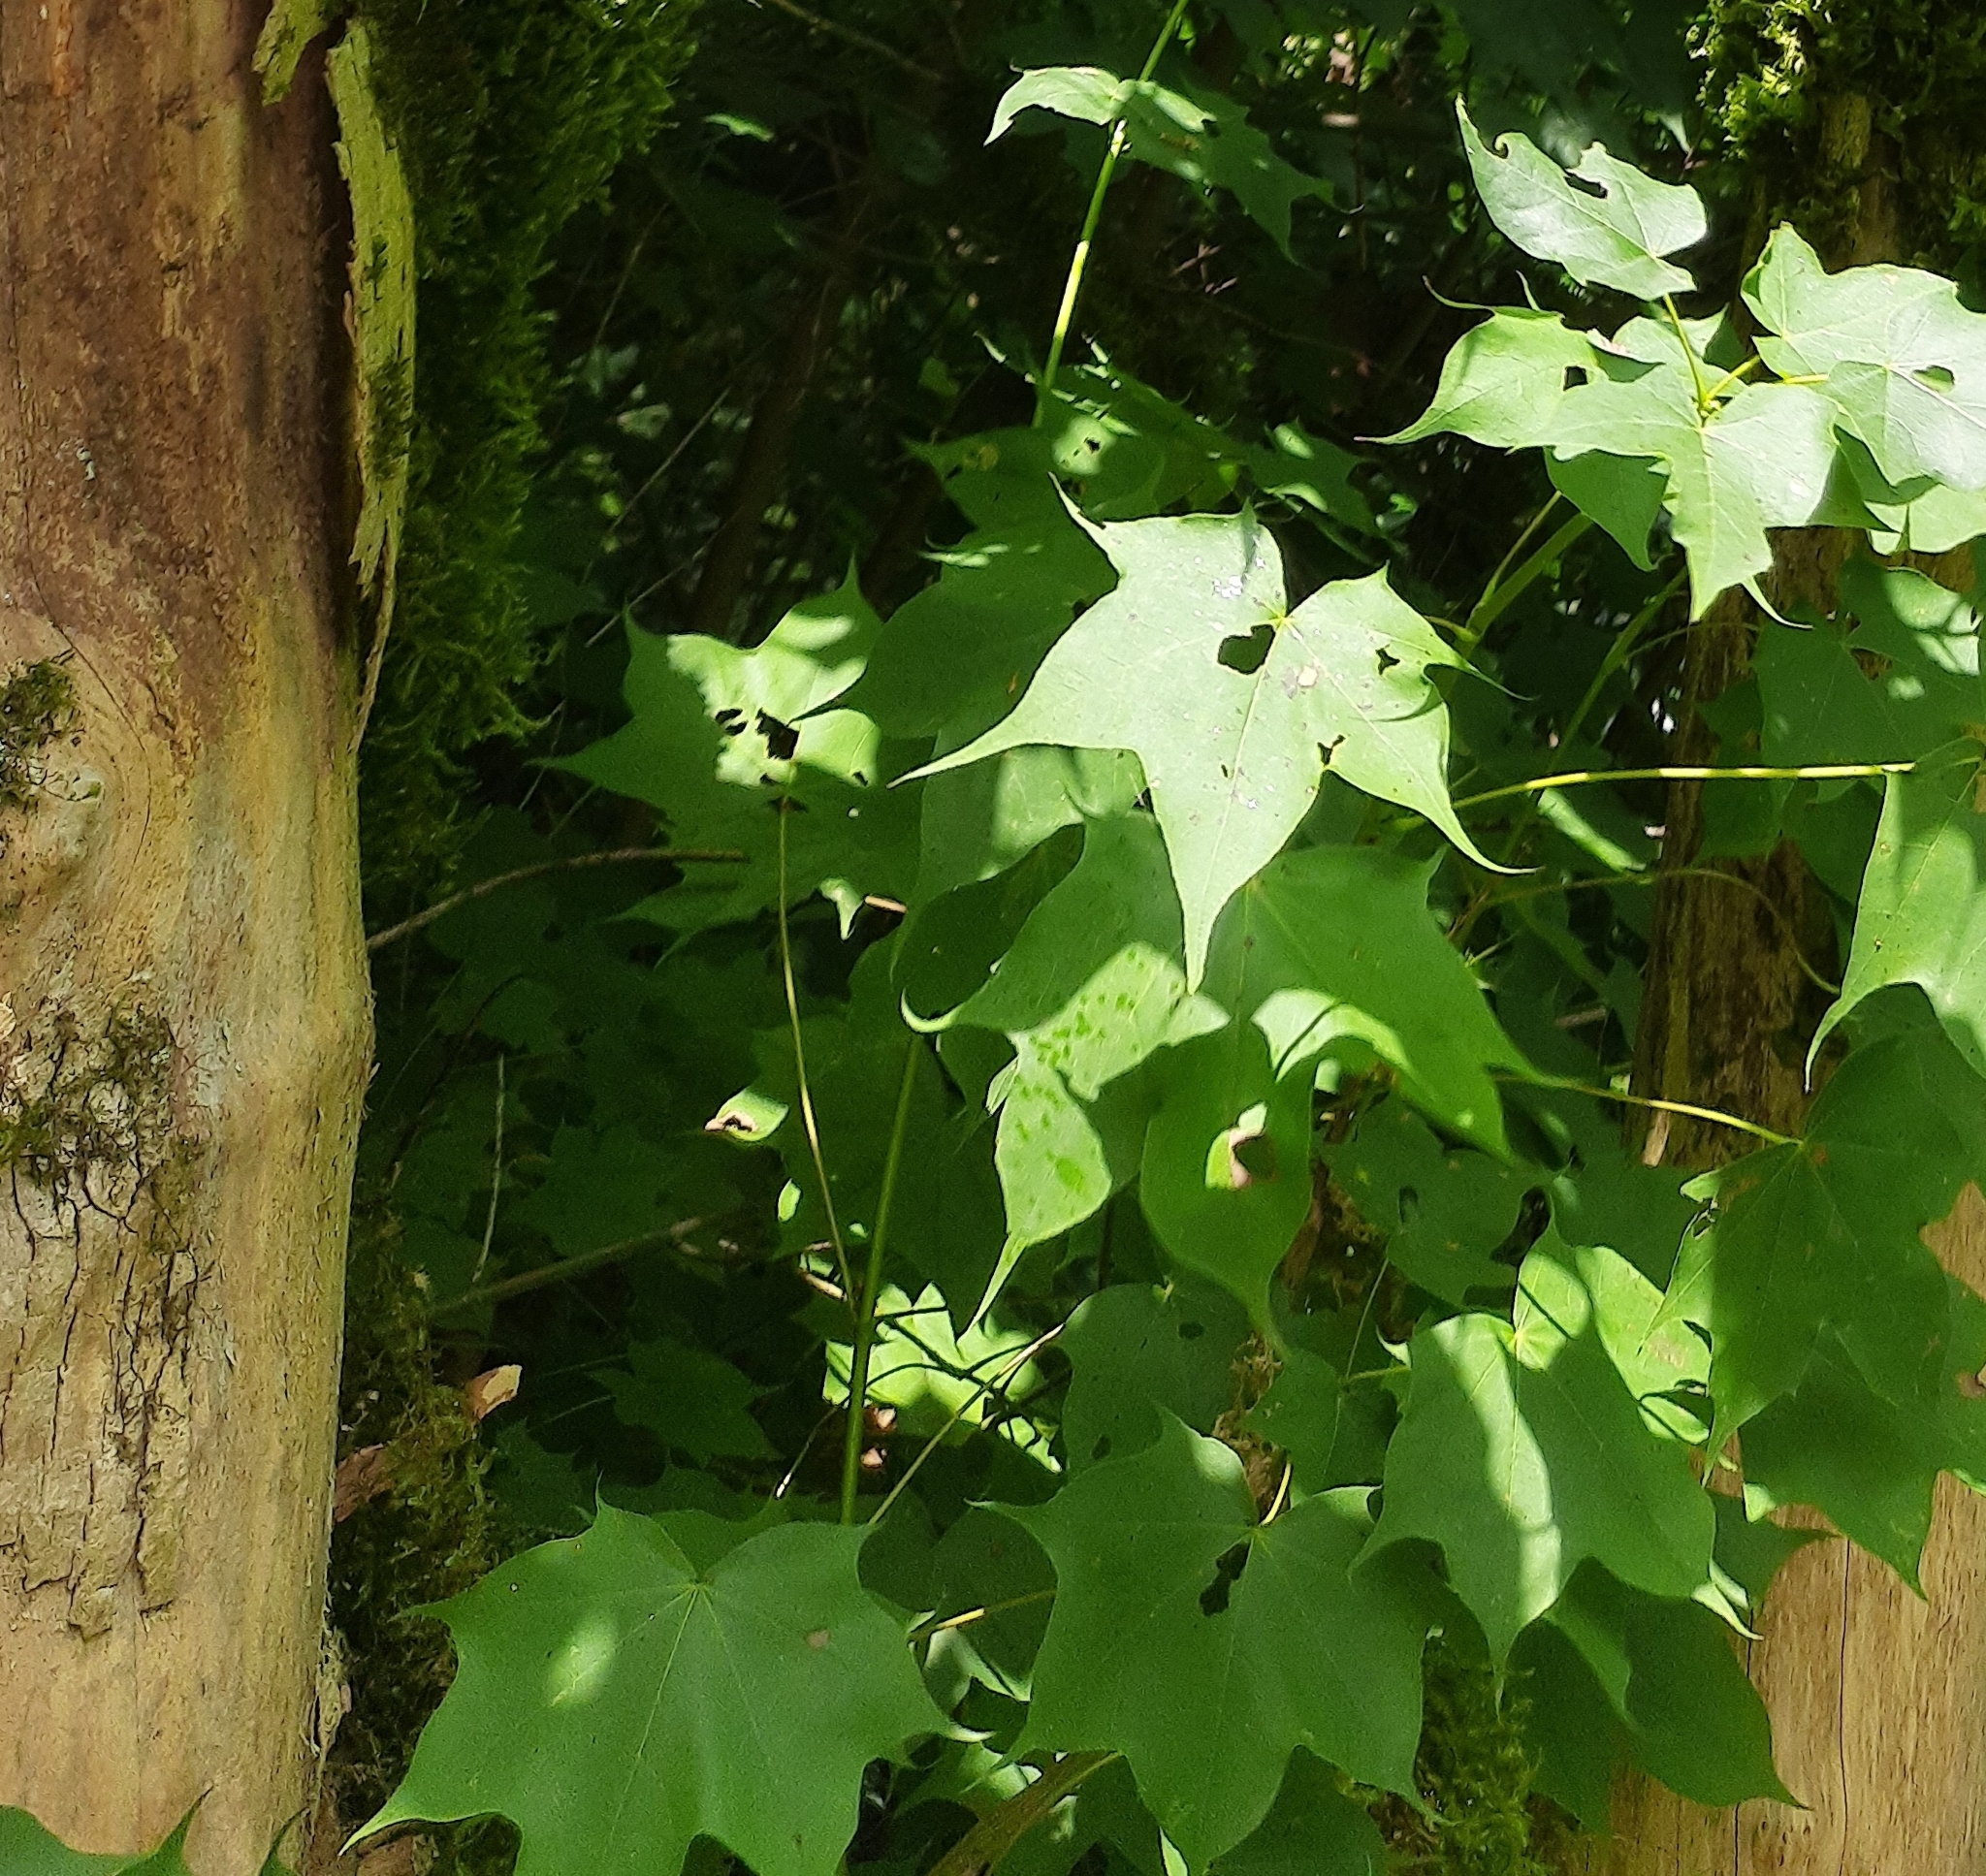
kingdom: Plantae
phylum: Tracheophyta
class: Magnoliopsida
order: Sapindales
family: Sapindaceae
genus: Acer
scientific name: Acer cappadocicum
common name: Cappadocian maple
